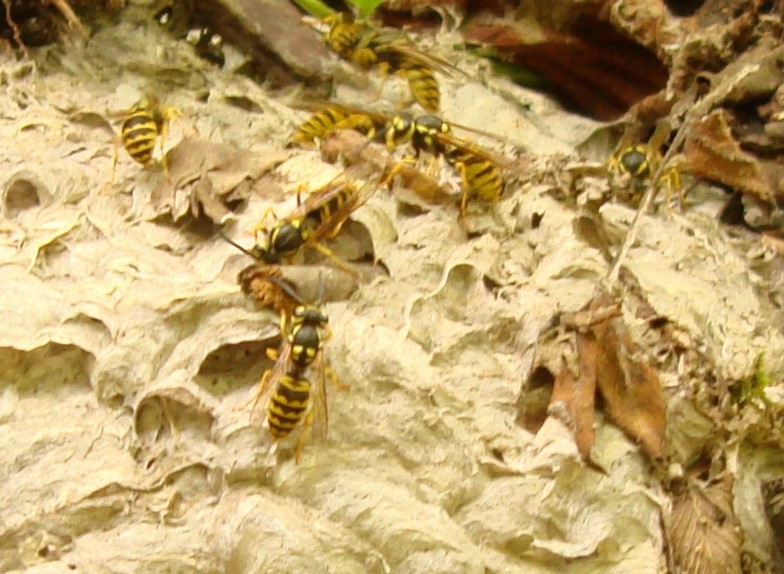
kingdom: Animalia
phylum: Arthropoda
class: Insecta
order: Hymenoptera
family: Vespidae
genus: Vespula
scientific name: Vespula germanica
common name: German wasp
